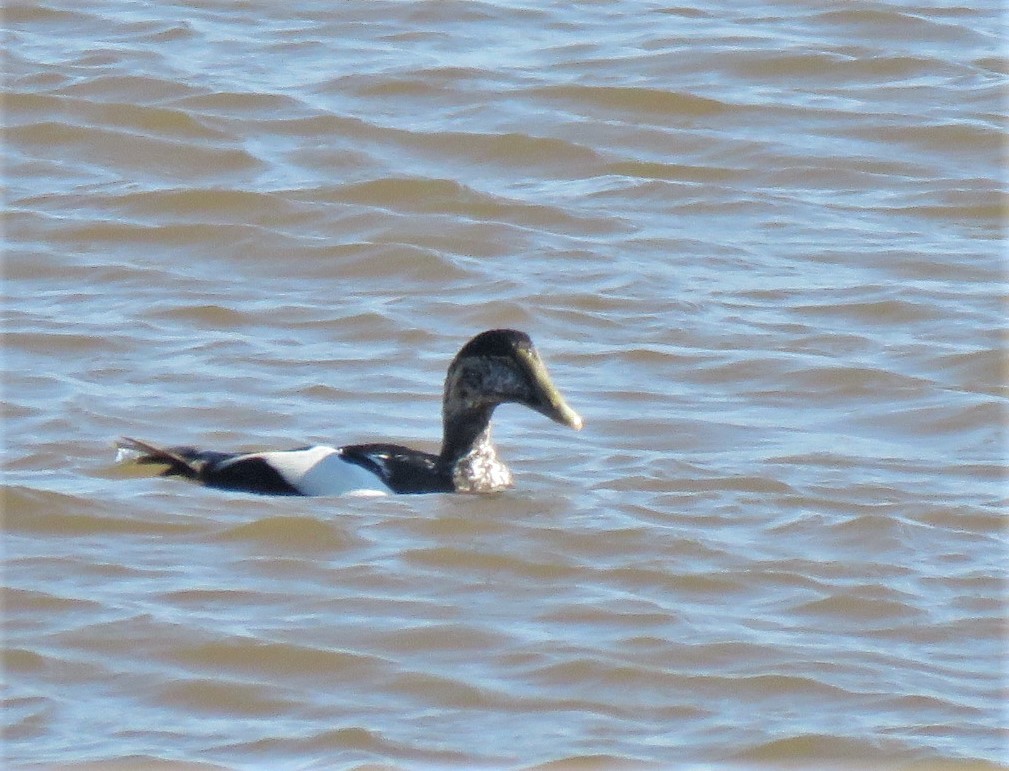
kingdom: Animalia
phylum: Chordata
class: Aves
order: Anseriformes
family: Anatidae
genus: Somateria
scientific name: Somateria mollissima
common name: Common eider
